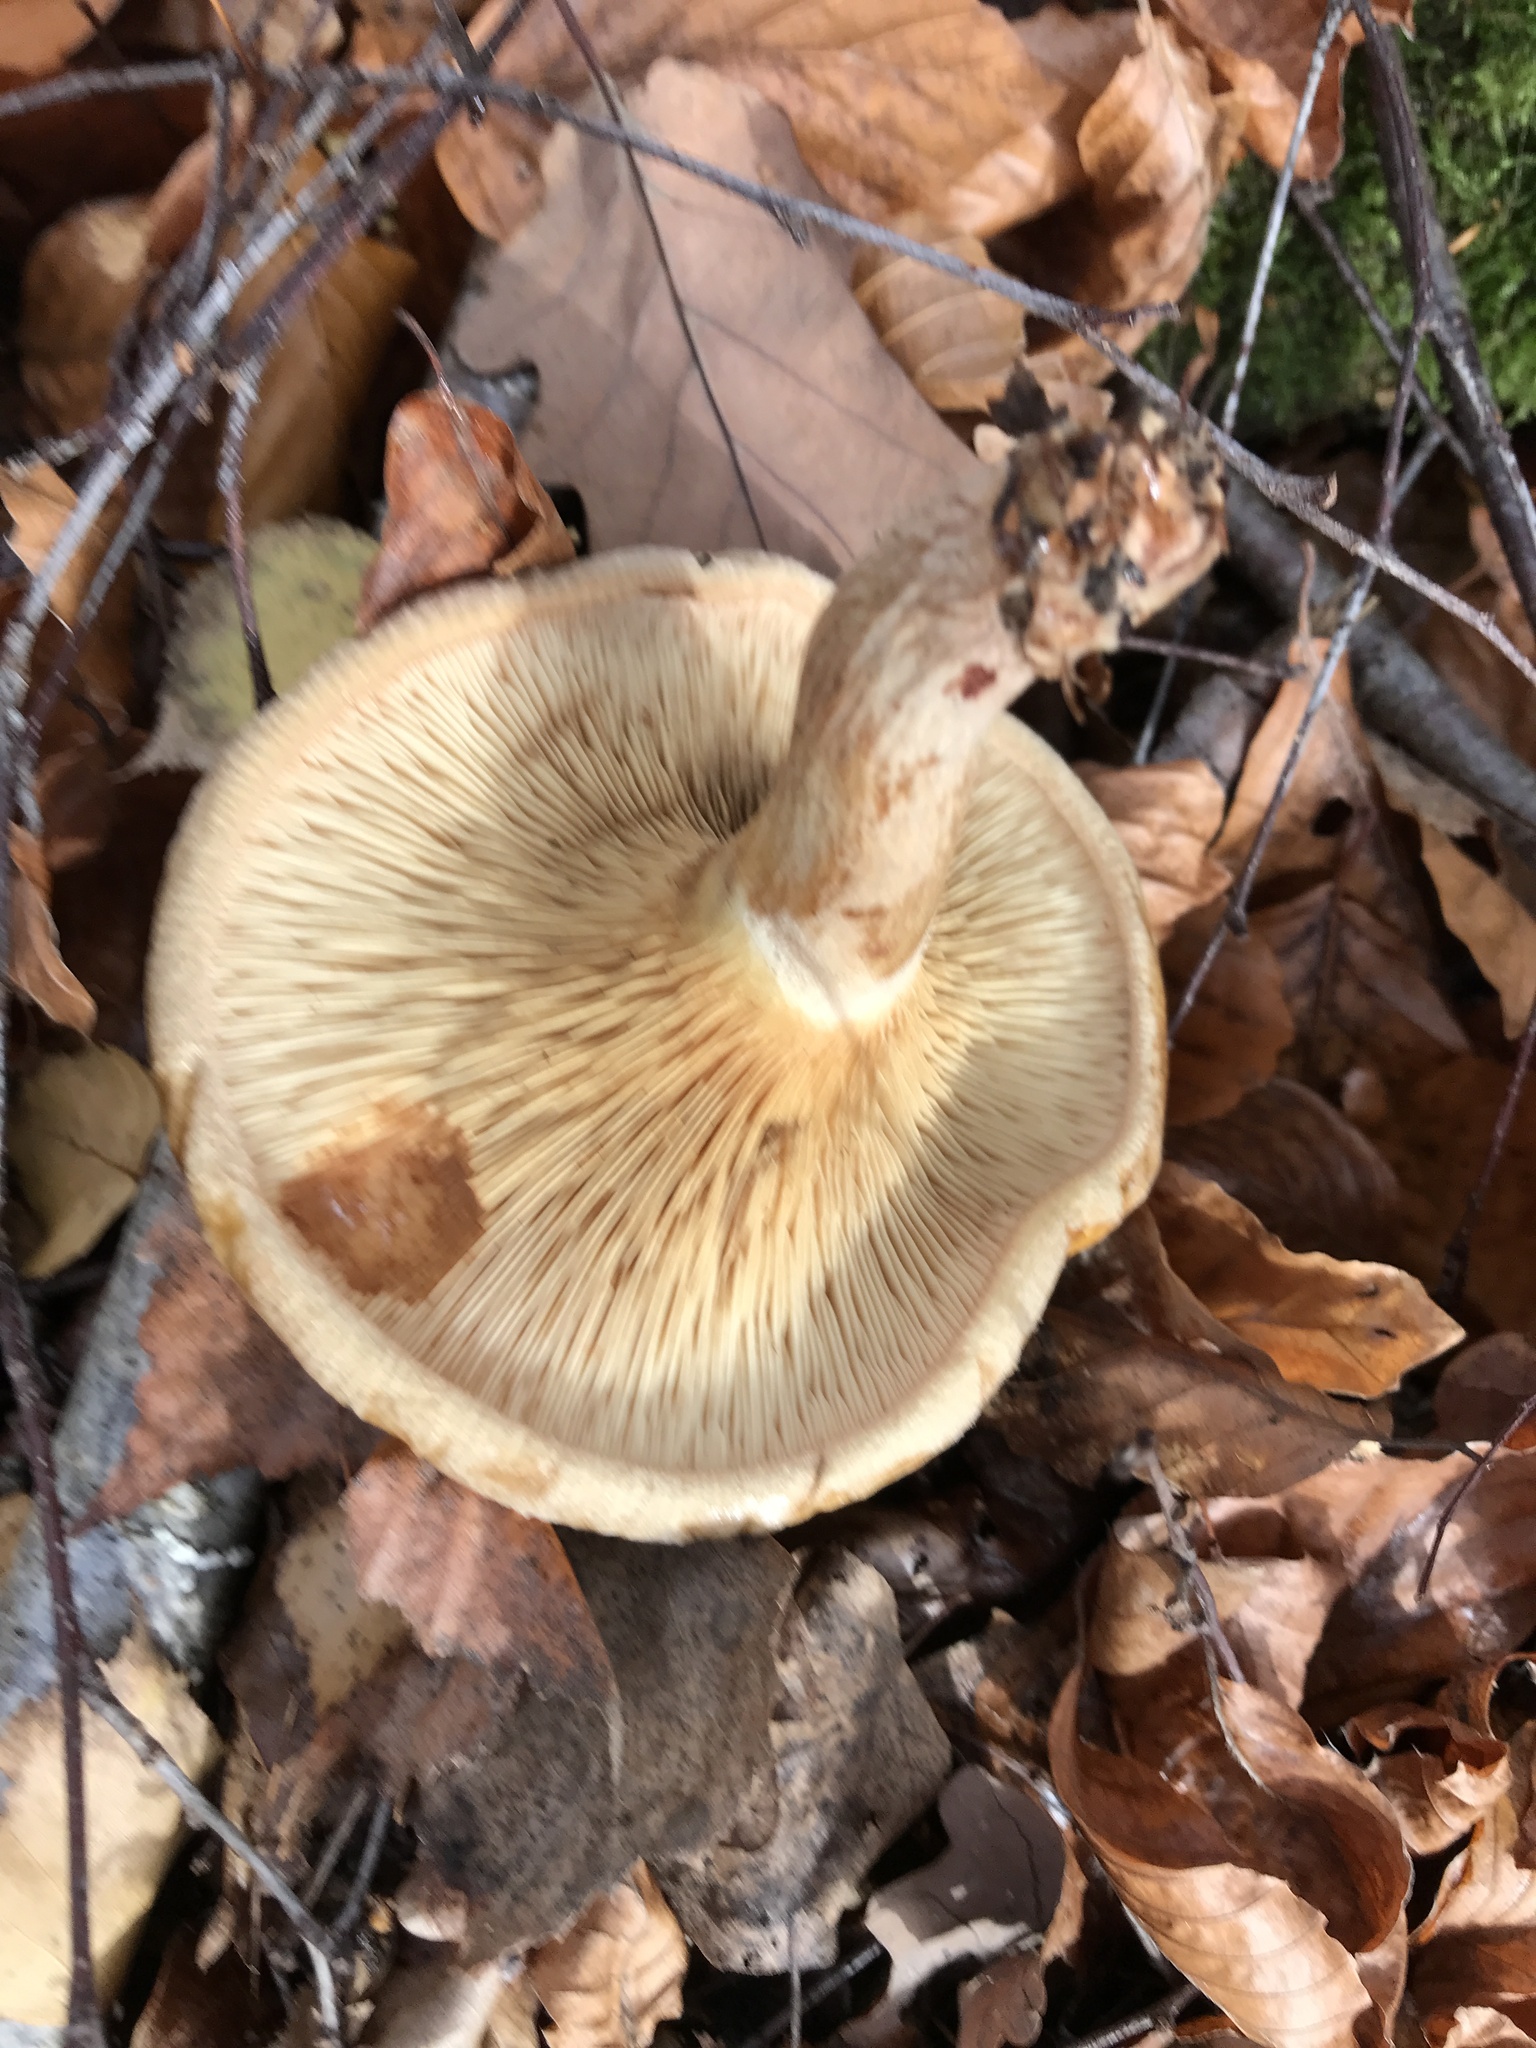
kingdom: Fungi
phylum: Basidiomycota
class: Agaricomycetes
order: Boletales
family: Paxillaceae
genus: Paxillus
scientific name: Paxillus involutus
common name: Brown roll rim
